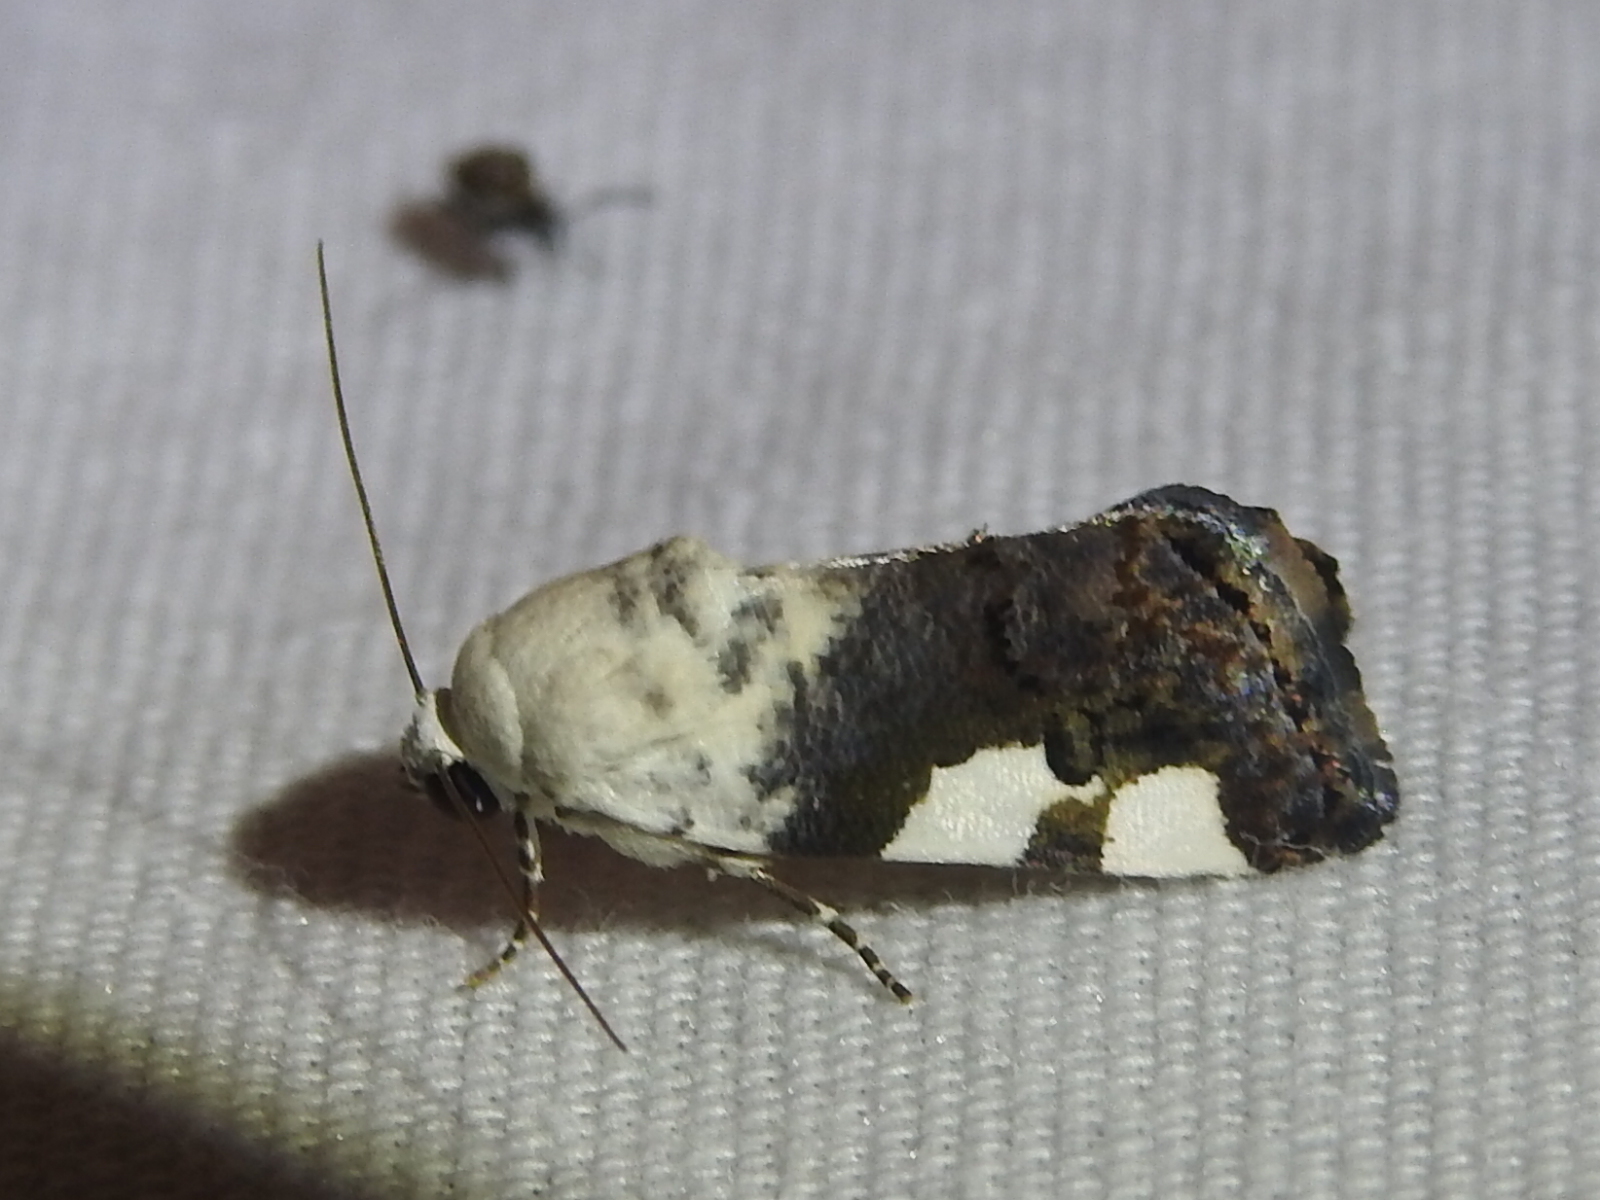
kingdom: Animalia
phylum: Arthropoda
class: Insecta
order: Lepidoptera
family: Noctuidae
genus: Acontia
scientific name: Acontia quadriplaga
